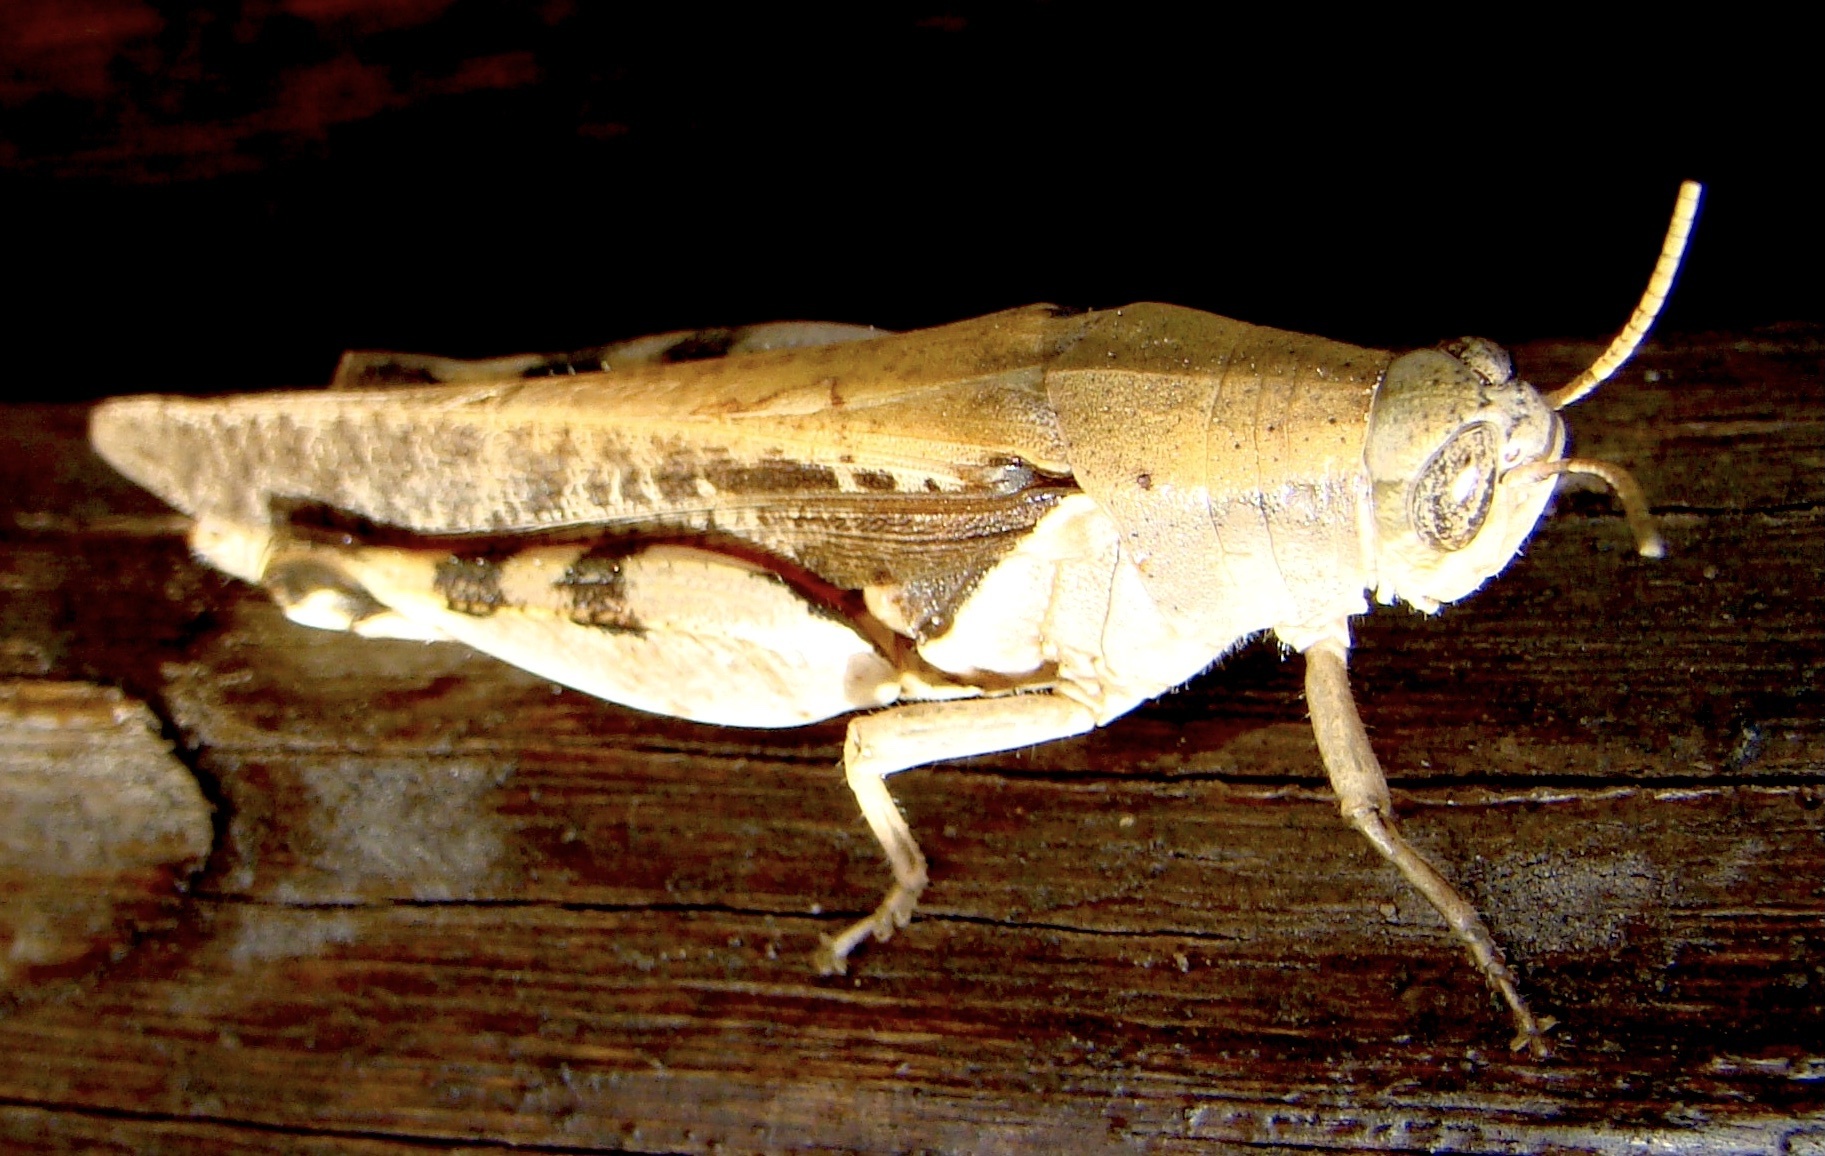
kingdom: Animalia
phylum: Arthropoda
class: Insecta
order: Orthoptera
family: Acrididae
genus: Diabolocatantops
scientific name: Diabolocatantops axillaris
